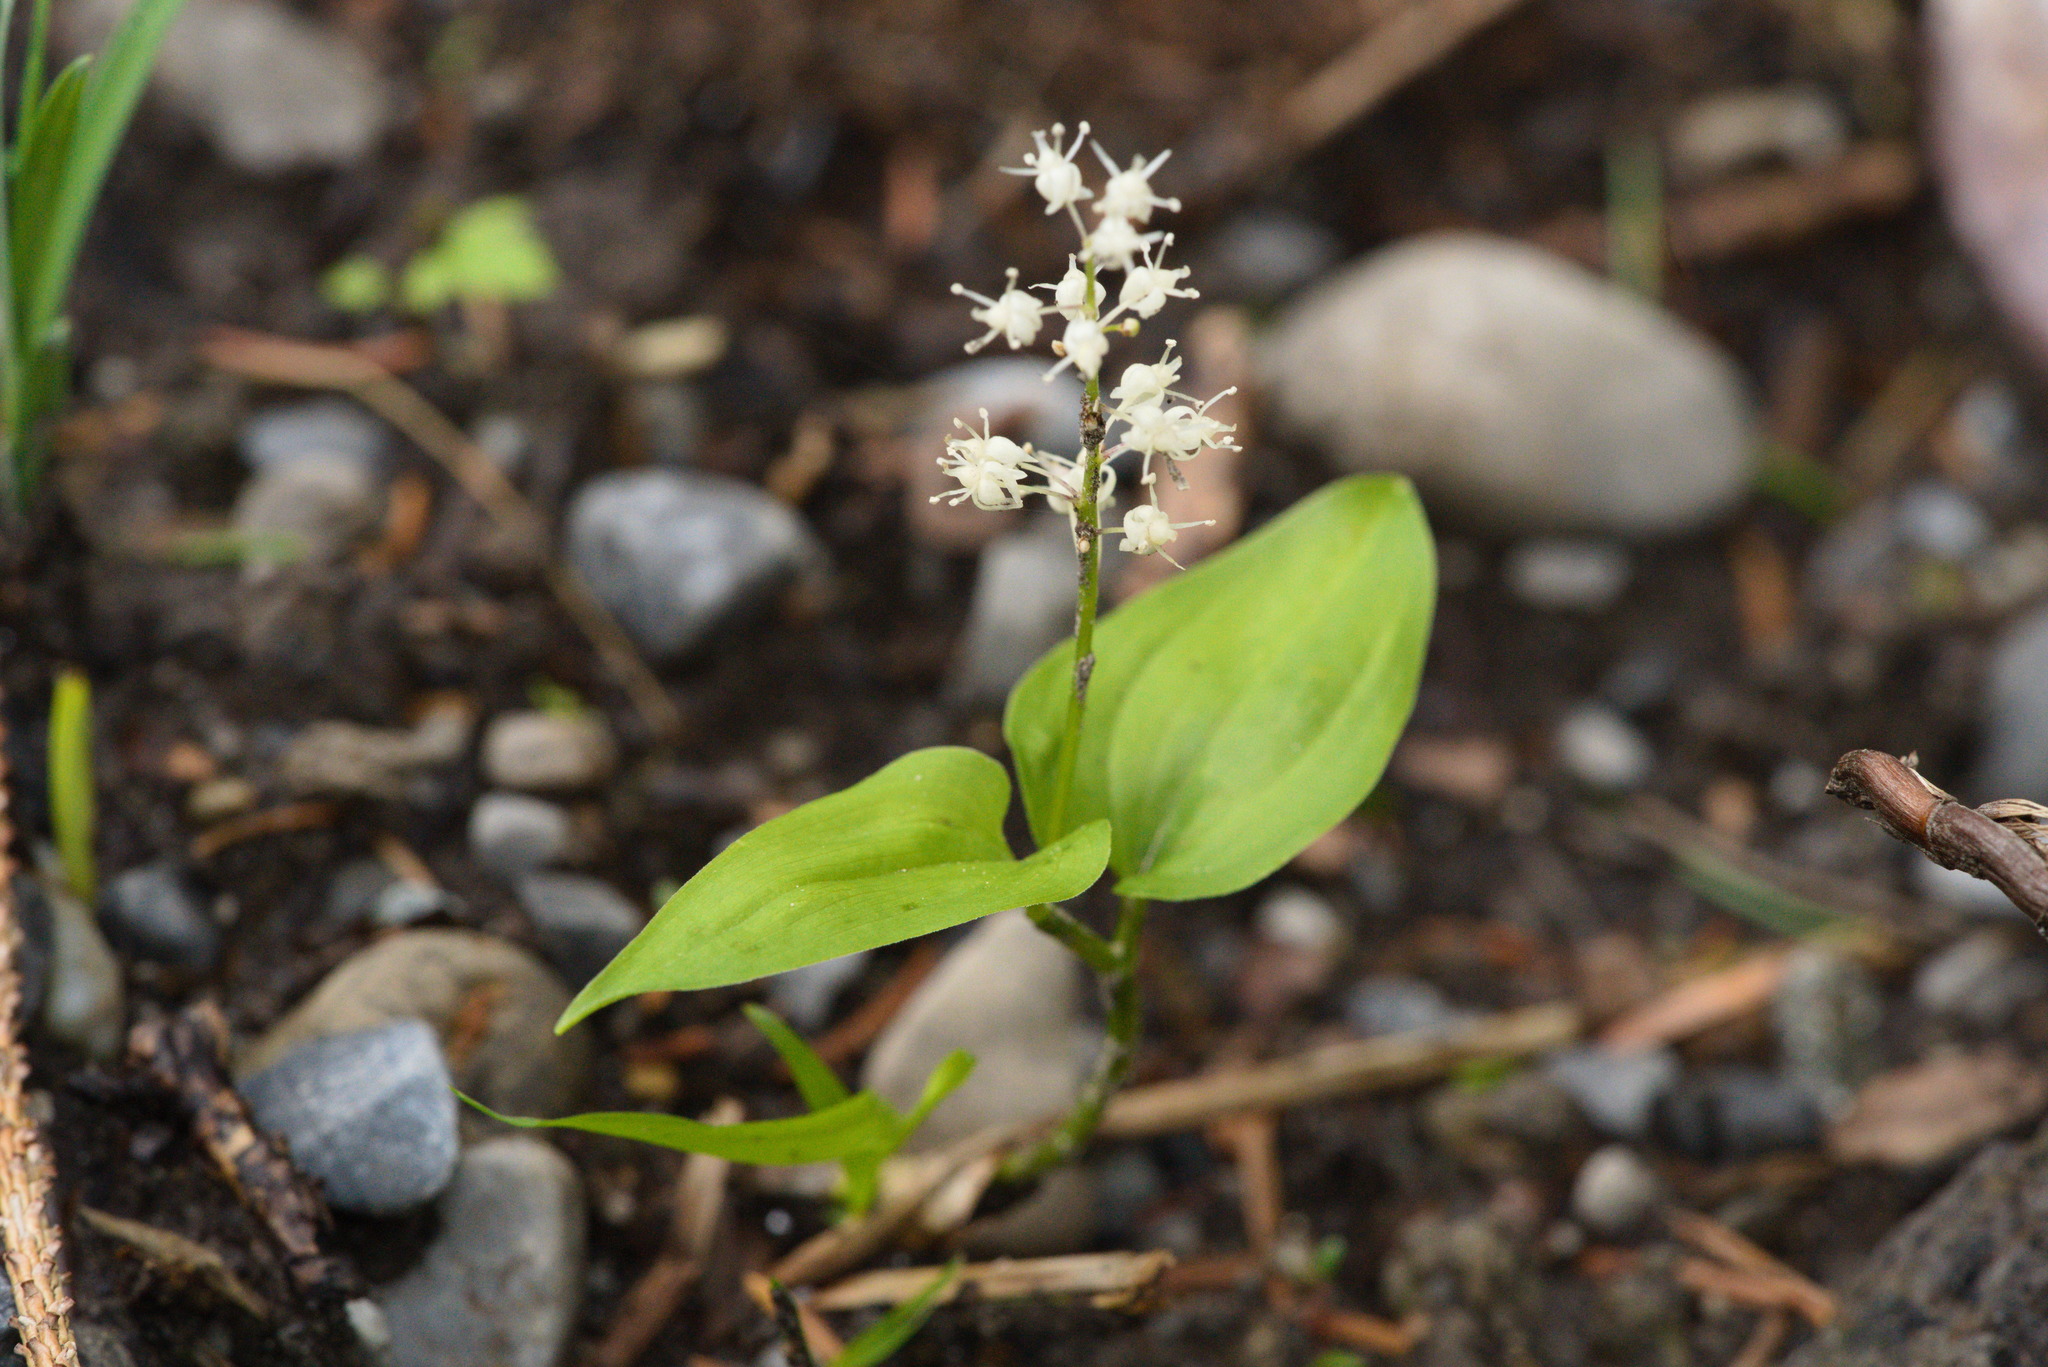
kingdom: Plantae
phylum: Tracheophyta
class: Liliopsida
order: Asparagales
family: Asparagaceae
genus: Maianthemum
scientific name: Maianthemum bifolium
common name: May lily
